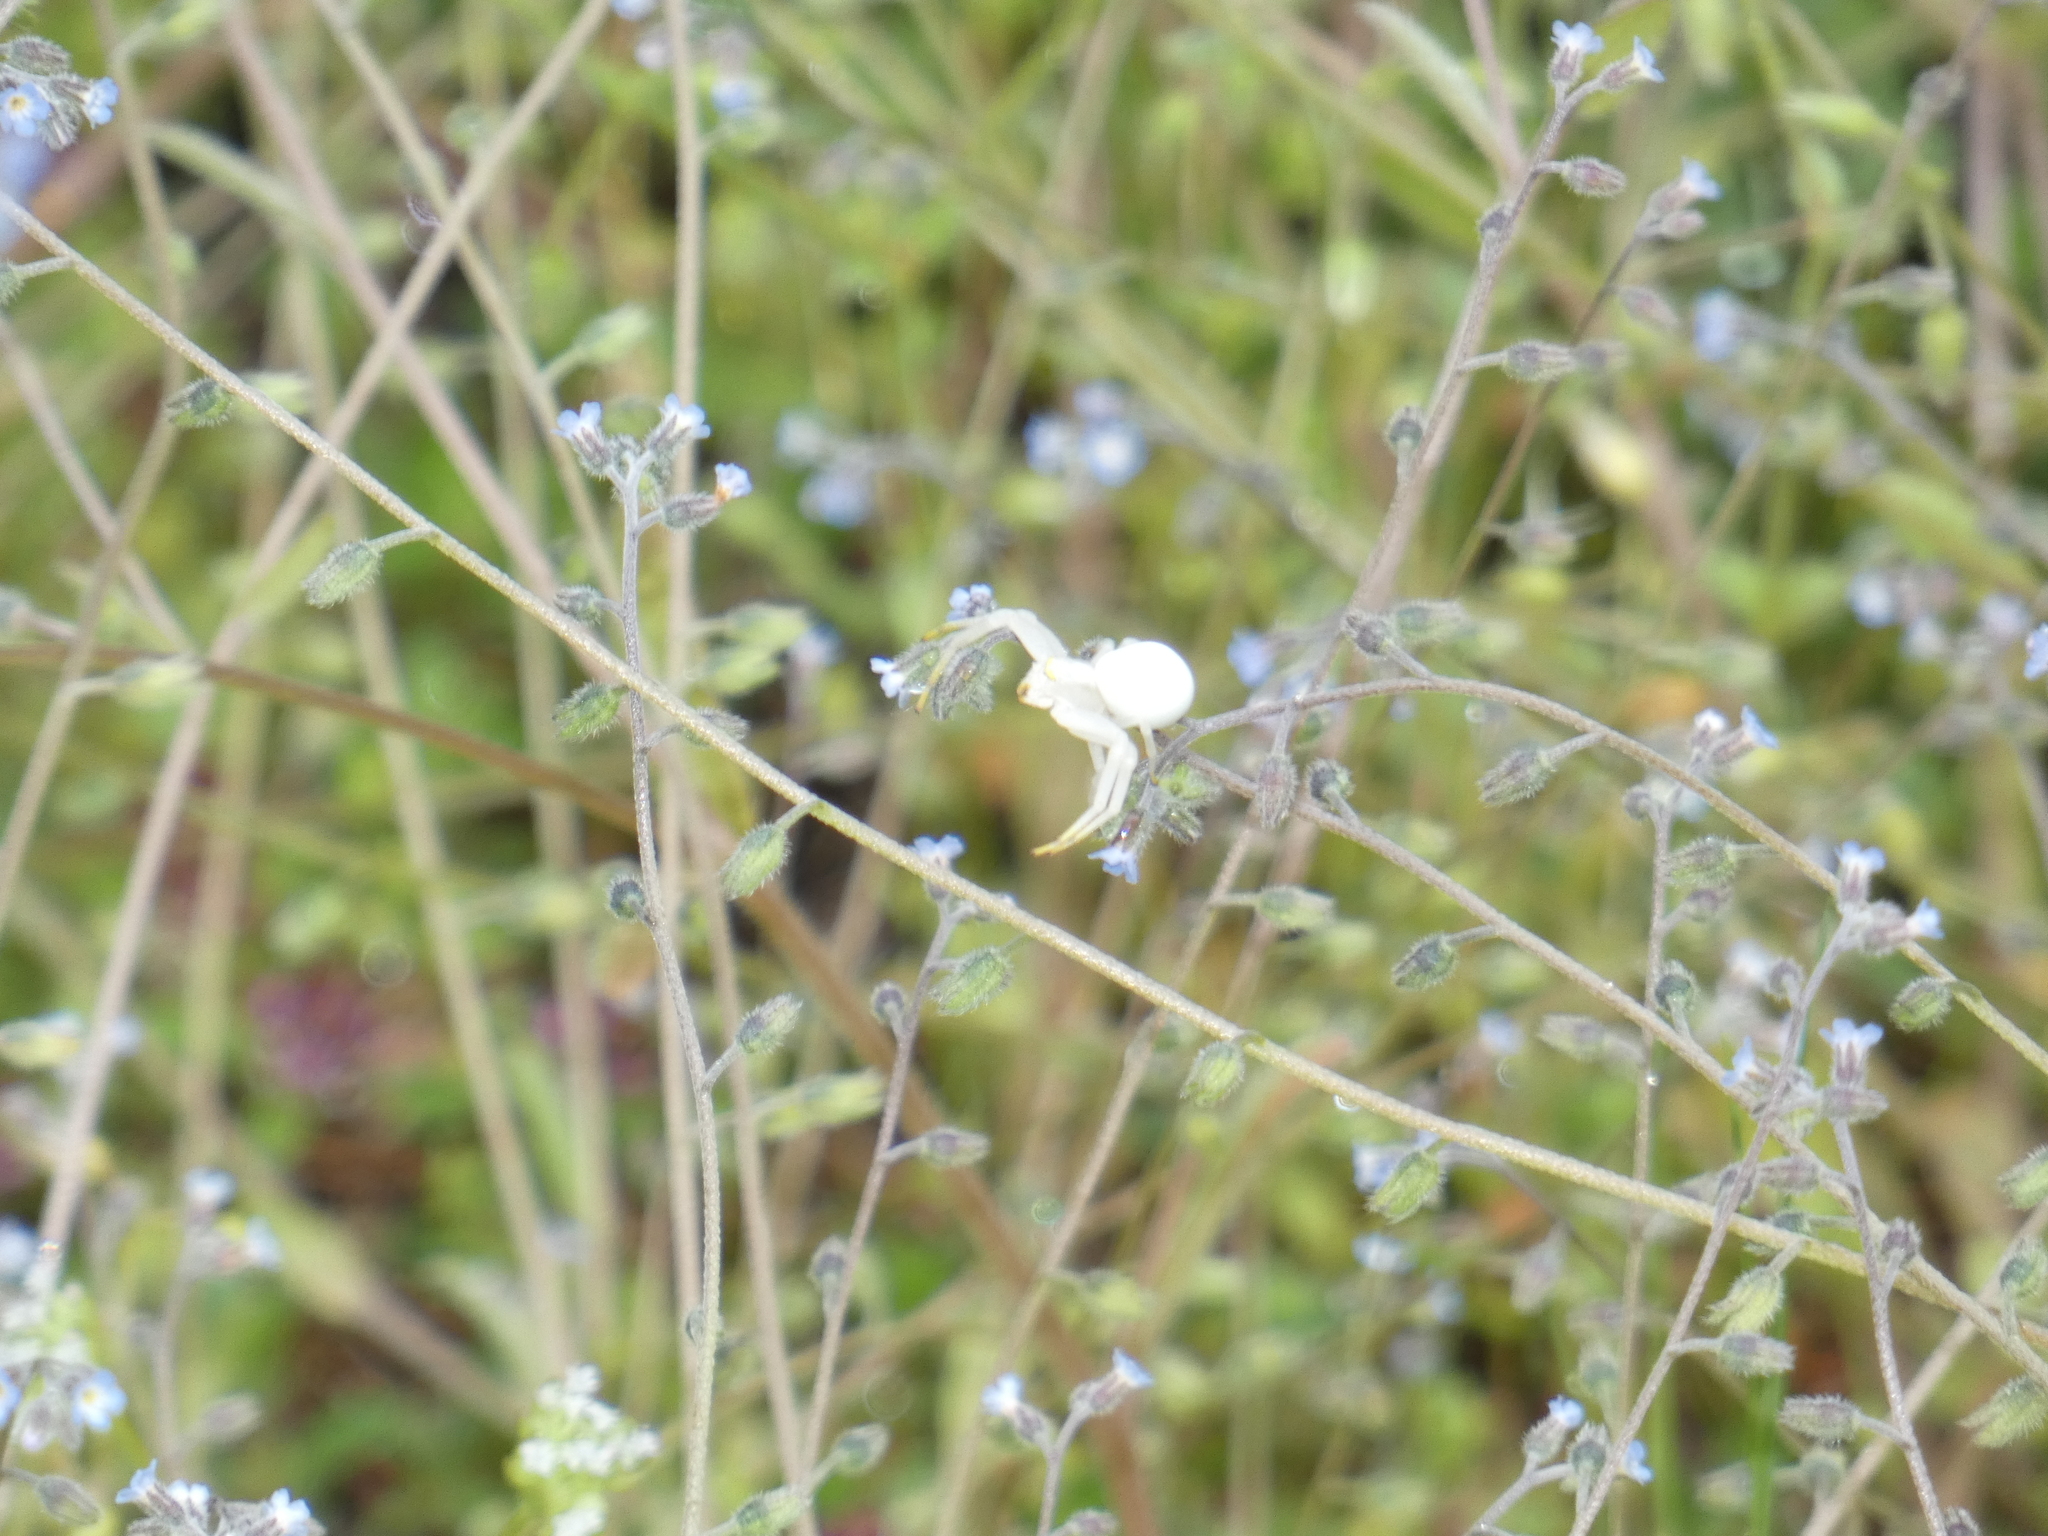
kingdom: Animalia
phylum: Arthropoda
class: Arachnida
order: Araneae
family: Thomisidae
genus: Misumena
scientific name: Misumena vatia
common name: Goldenrod crab spider
